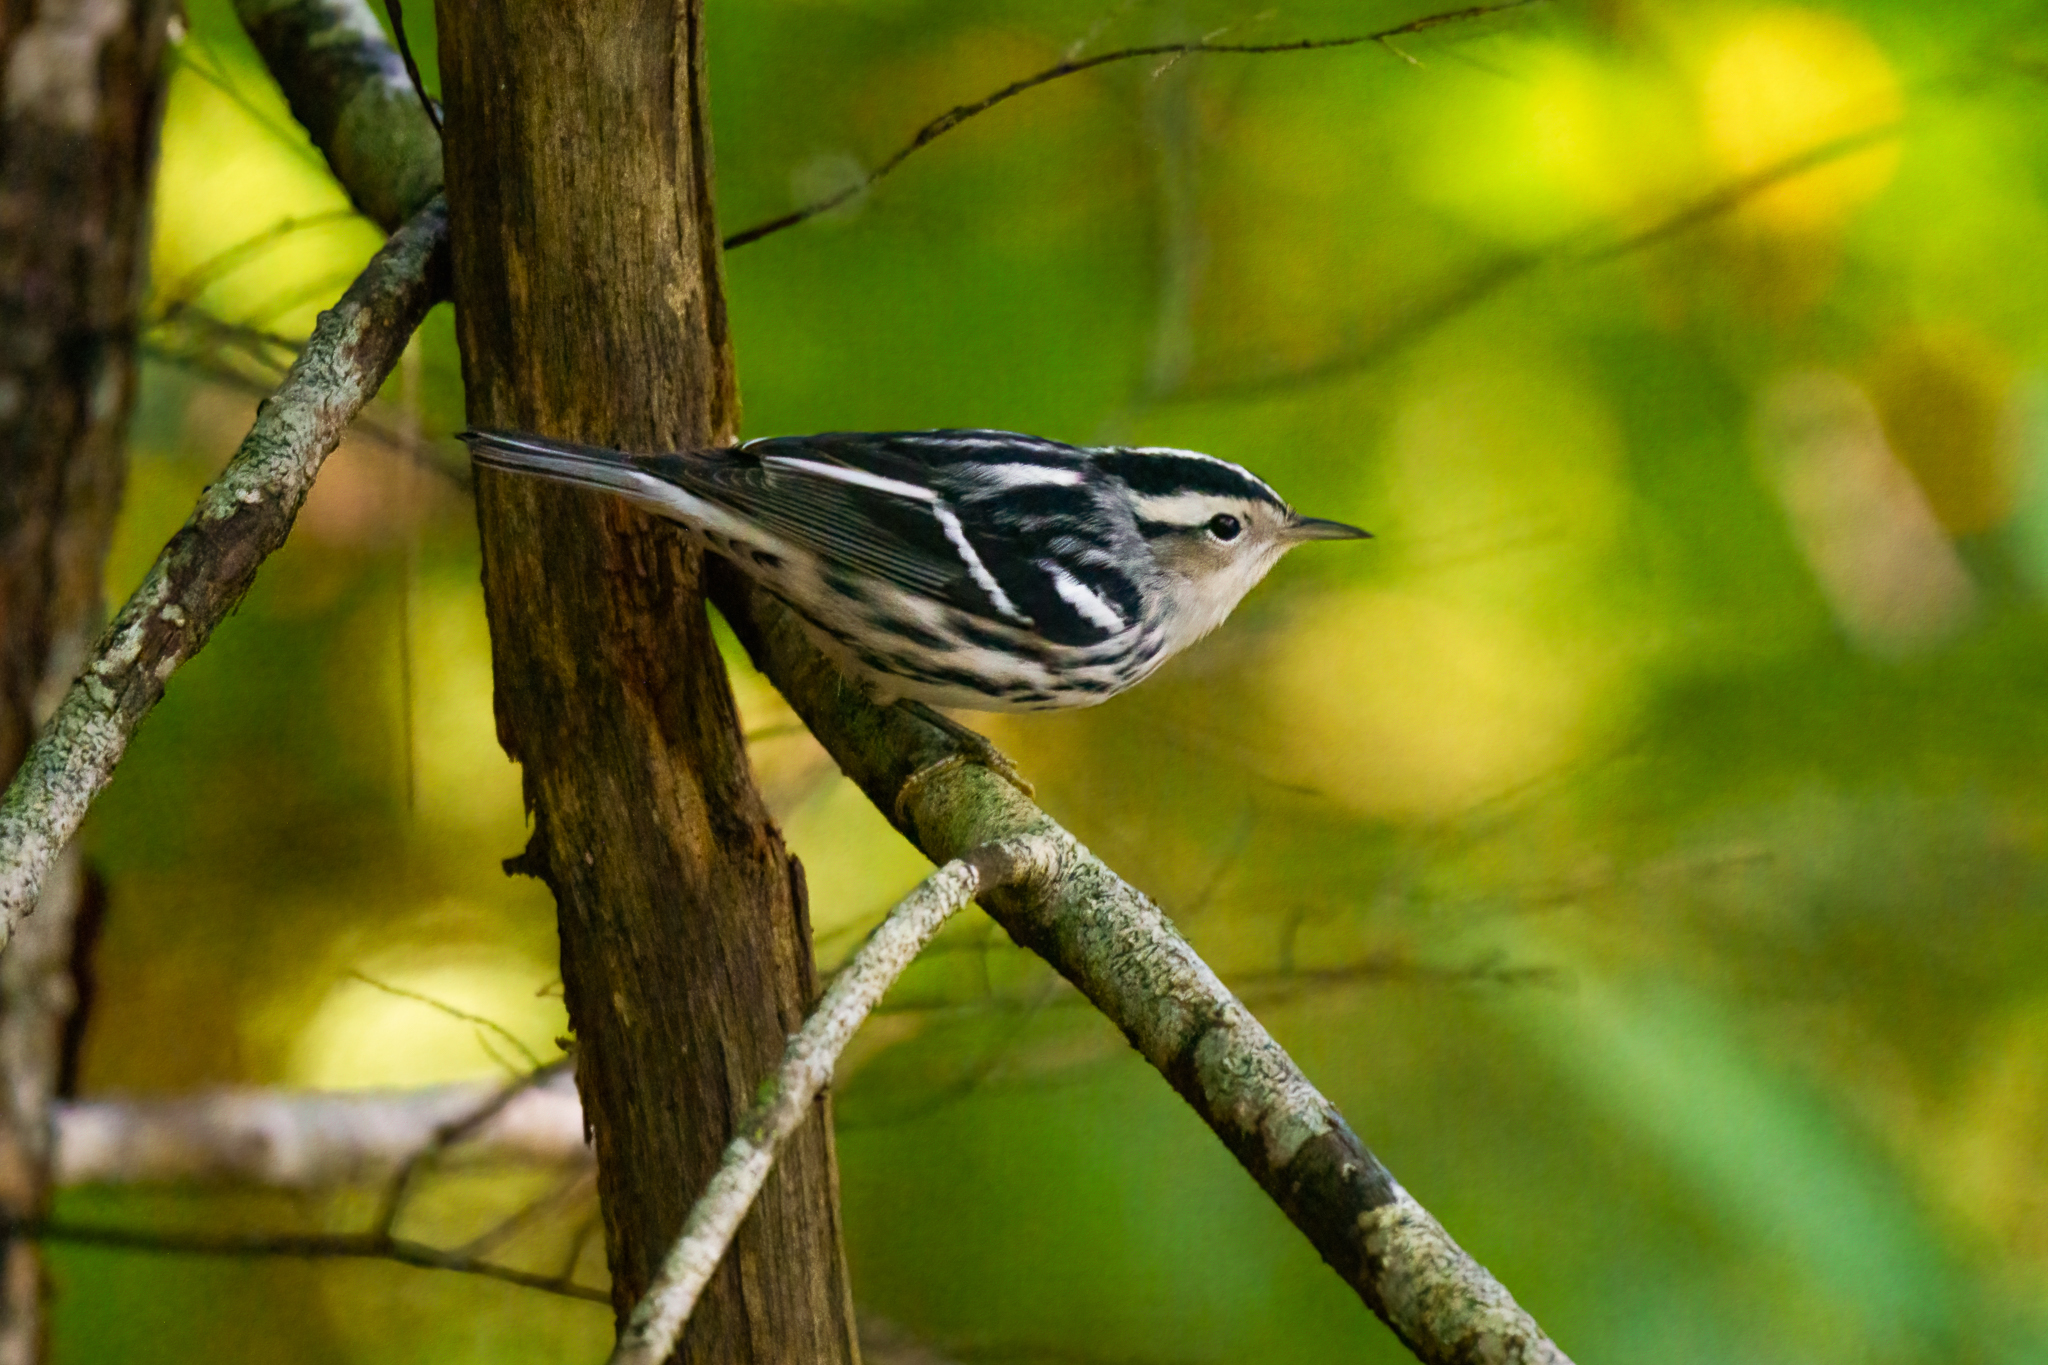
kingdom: Animalia
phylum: Chordata
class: Aves
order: Passeriformes
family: Parulidae
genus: Mniotilta
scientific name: Mniotilta varia
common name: Black-and-white warbler
